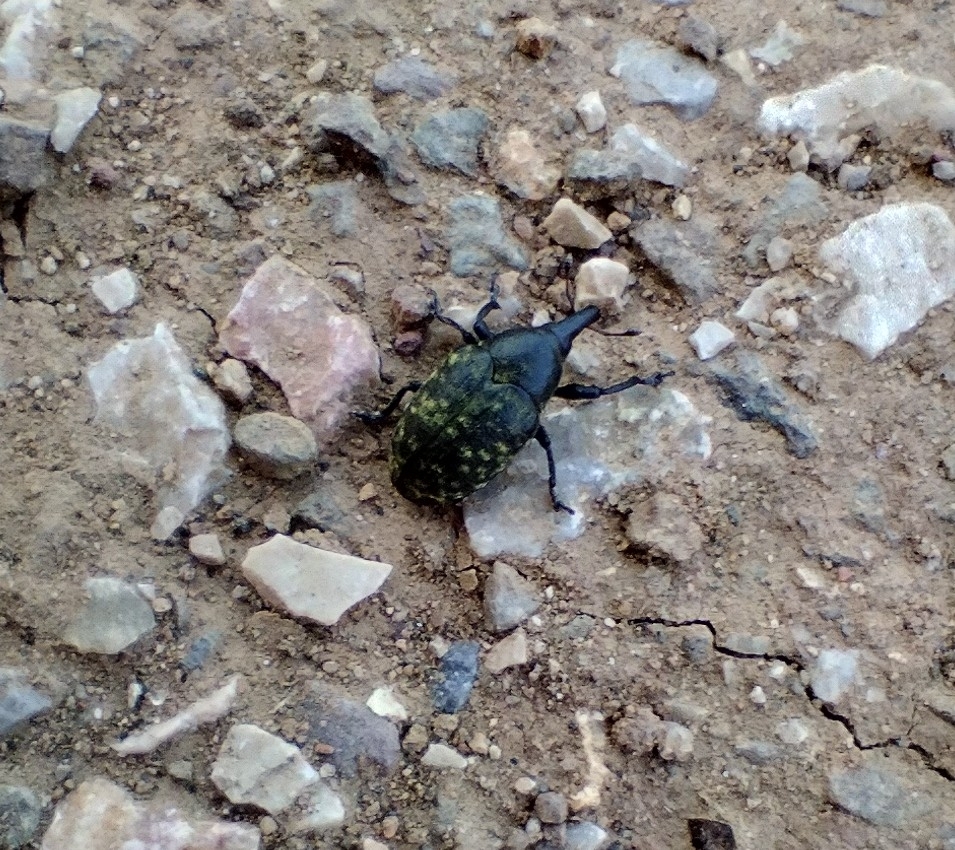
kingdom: Animalia
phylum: Arthropoda
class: Insecta
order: Coleoptera
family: Curculionidae
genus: Larinus
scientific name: Larinus turbinatus
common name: Weevil
